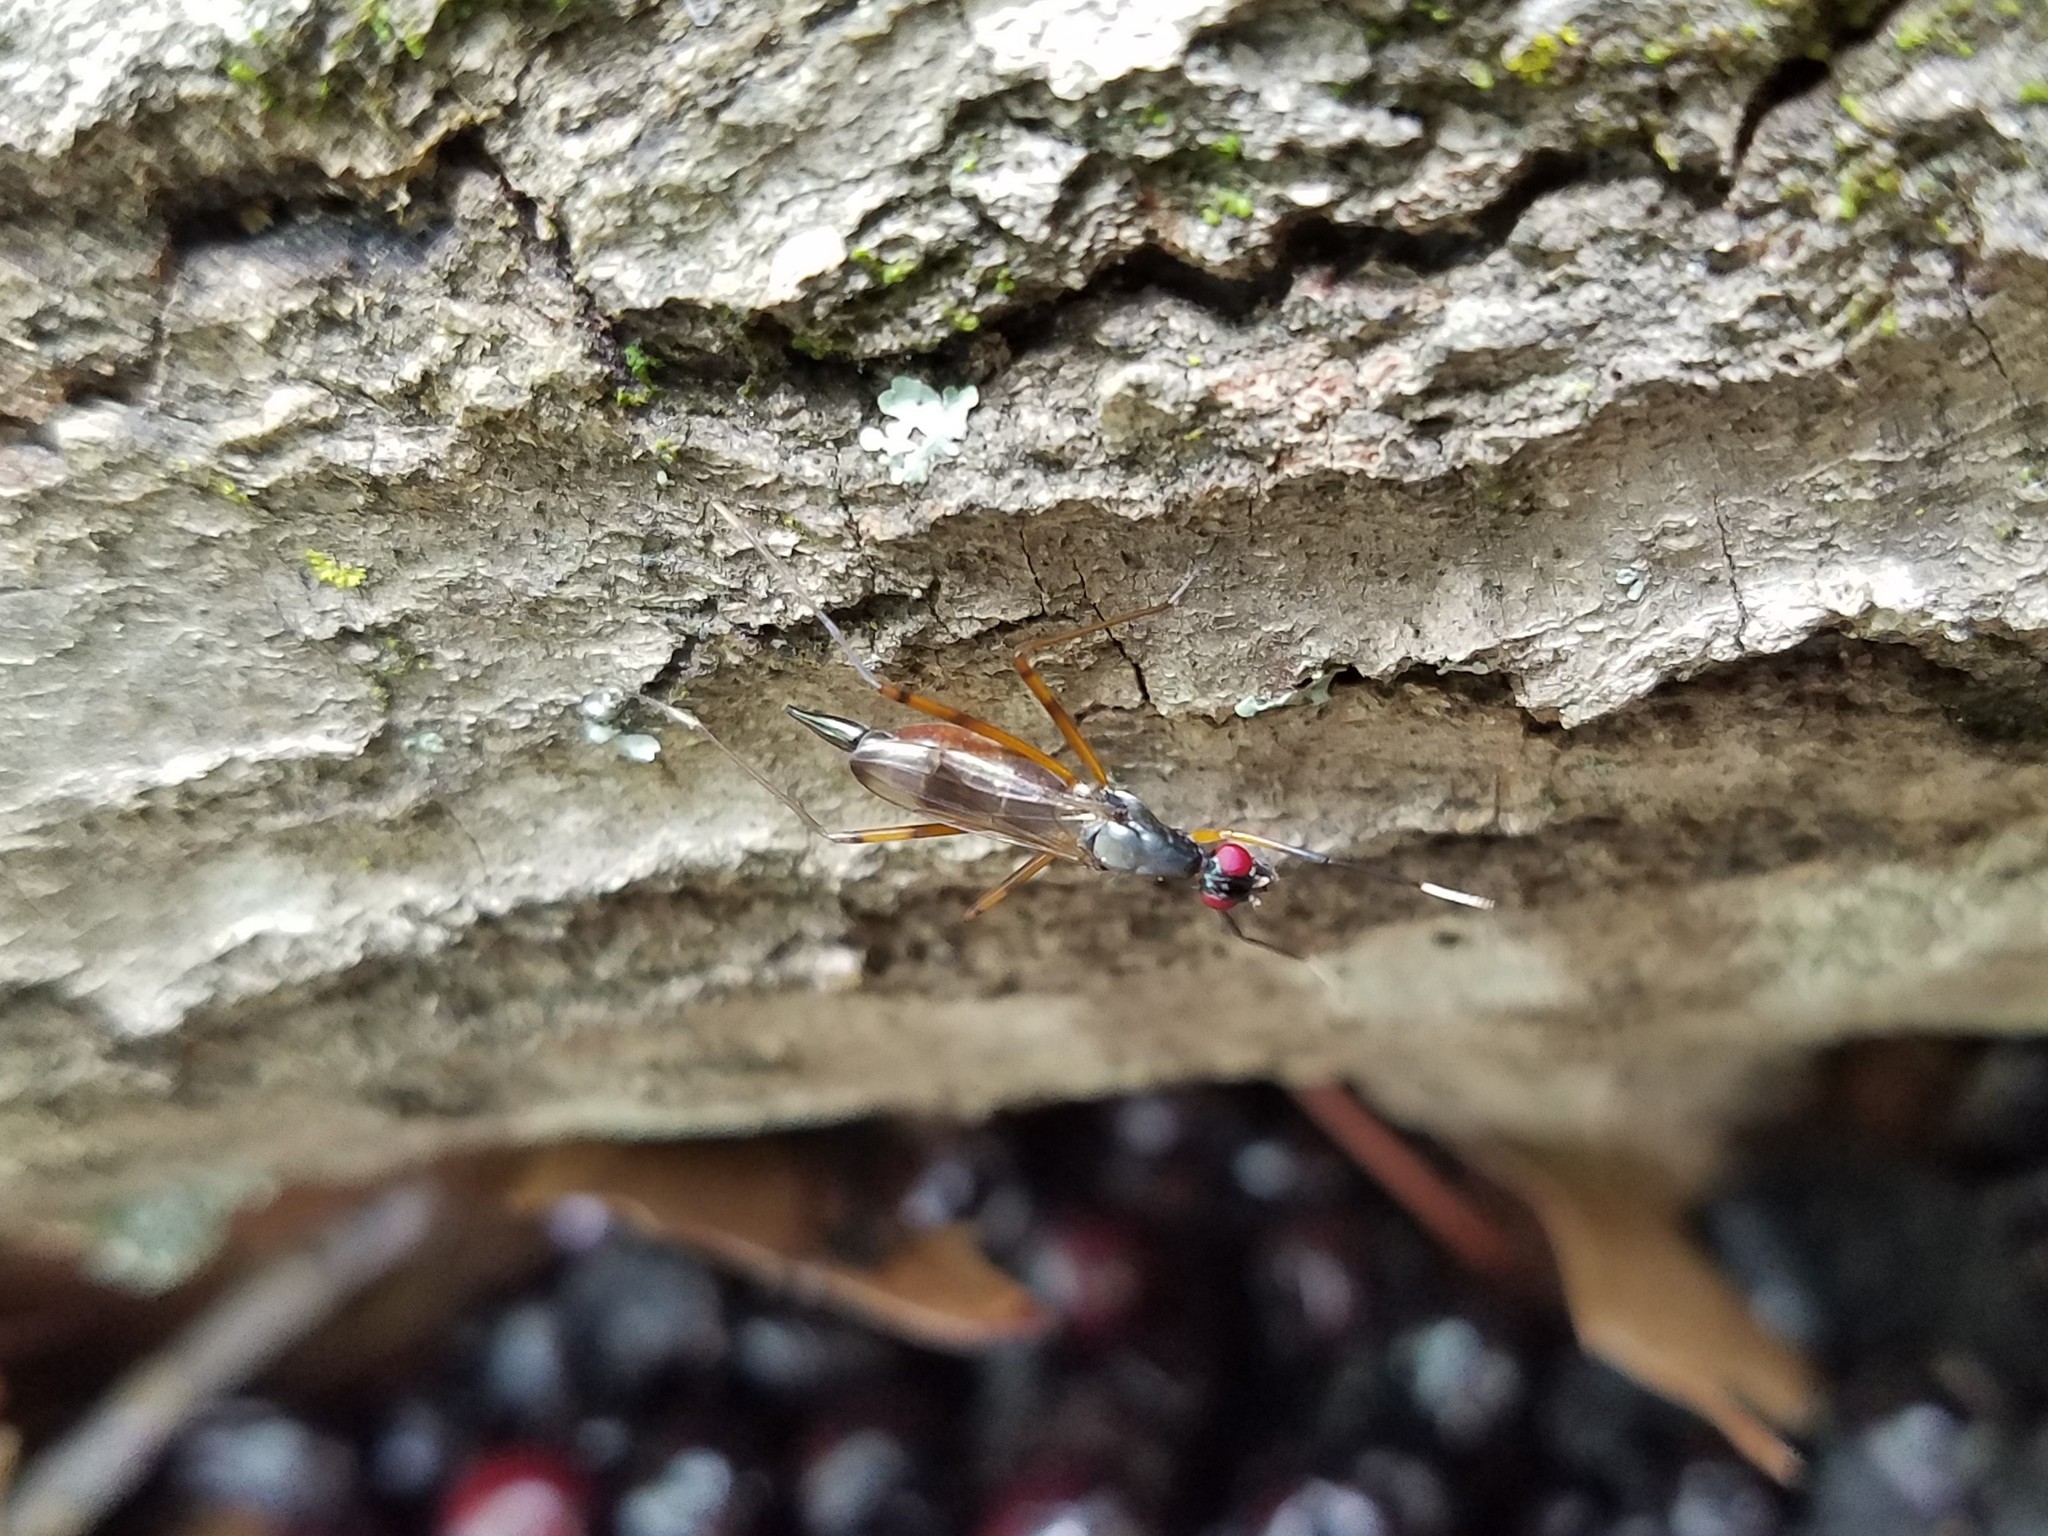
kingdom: Animalia
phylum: Arthropoda
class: Insecta
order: Diptera
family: Micropezidae
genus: Rainieria
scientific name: Rainieria antennaepes
